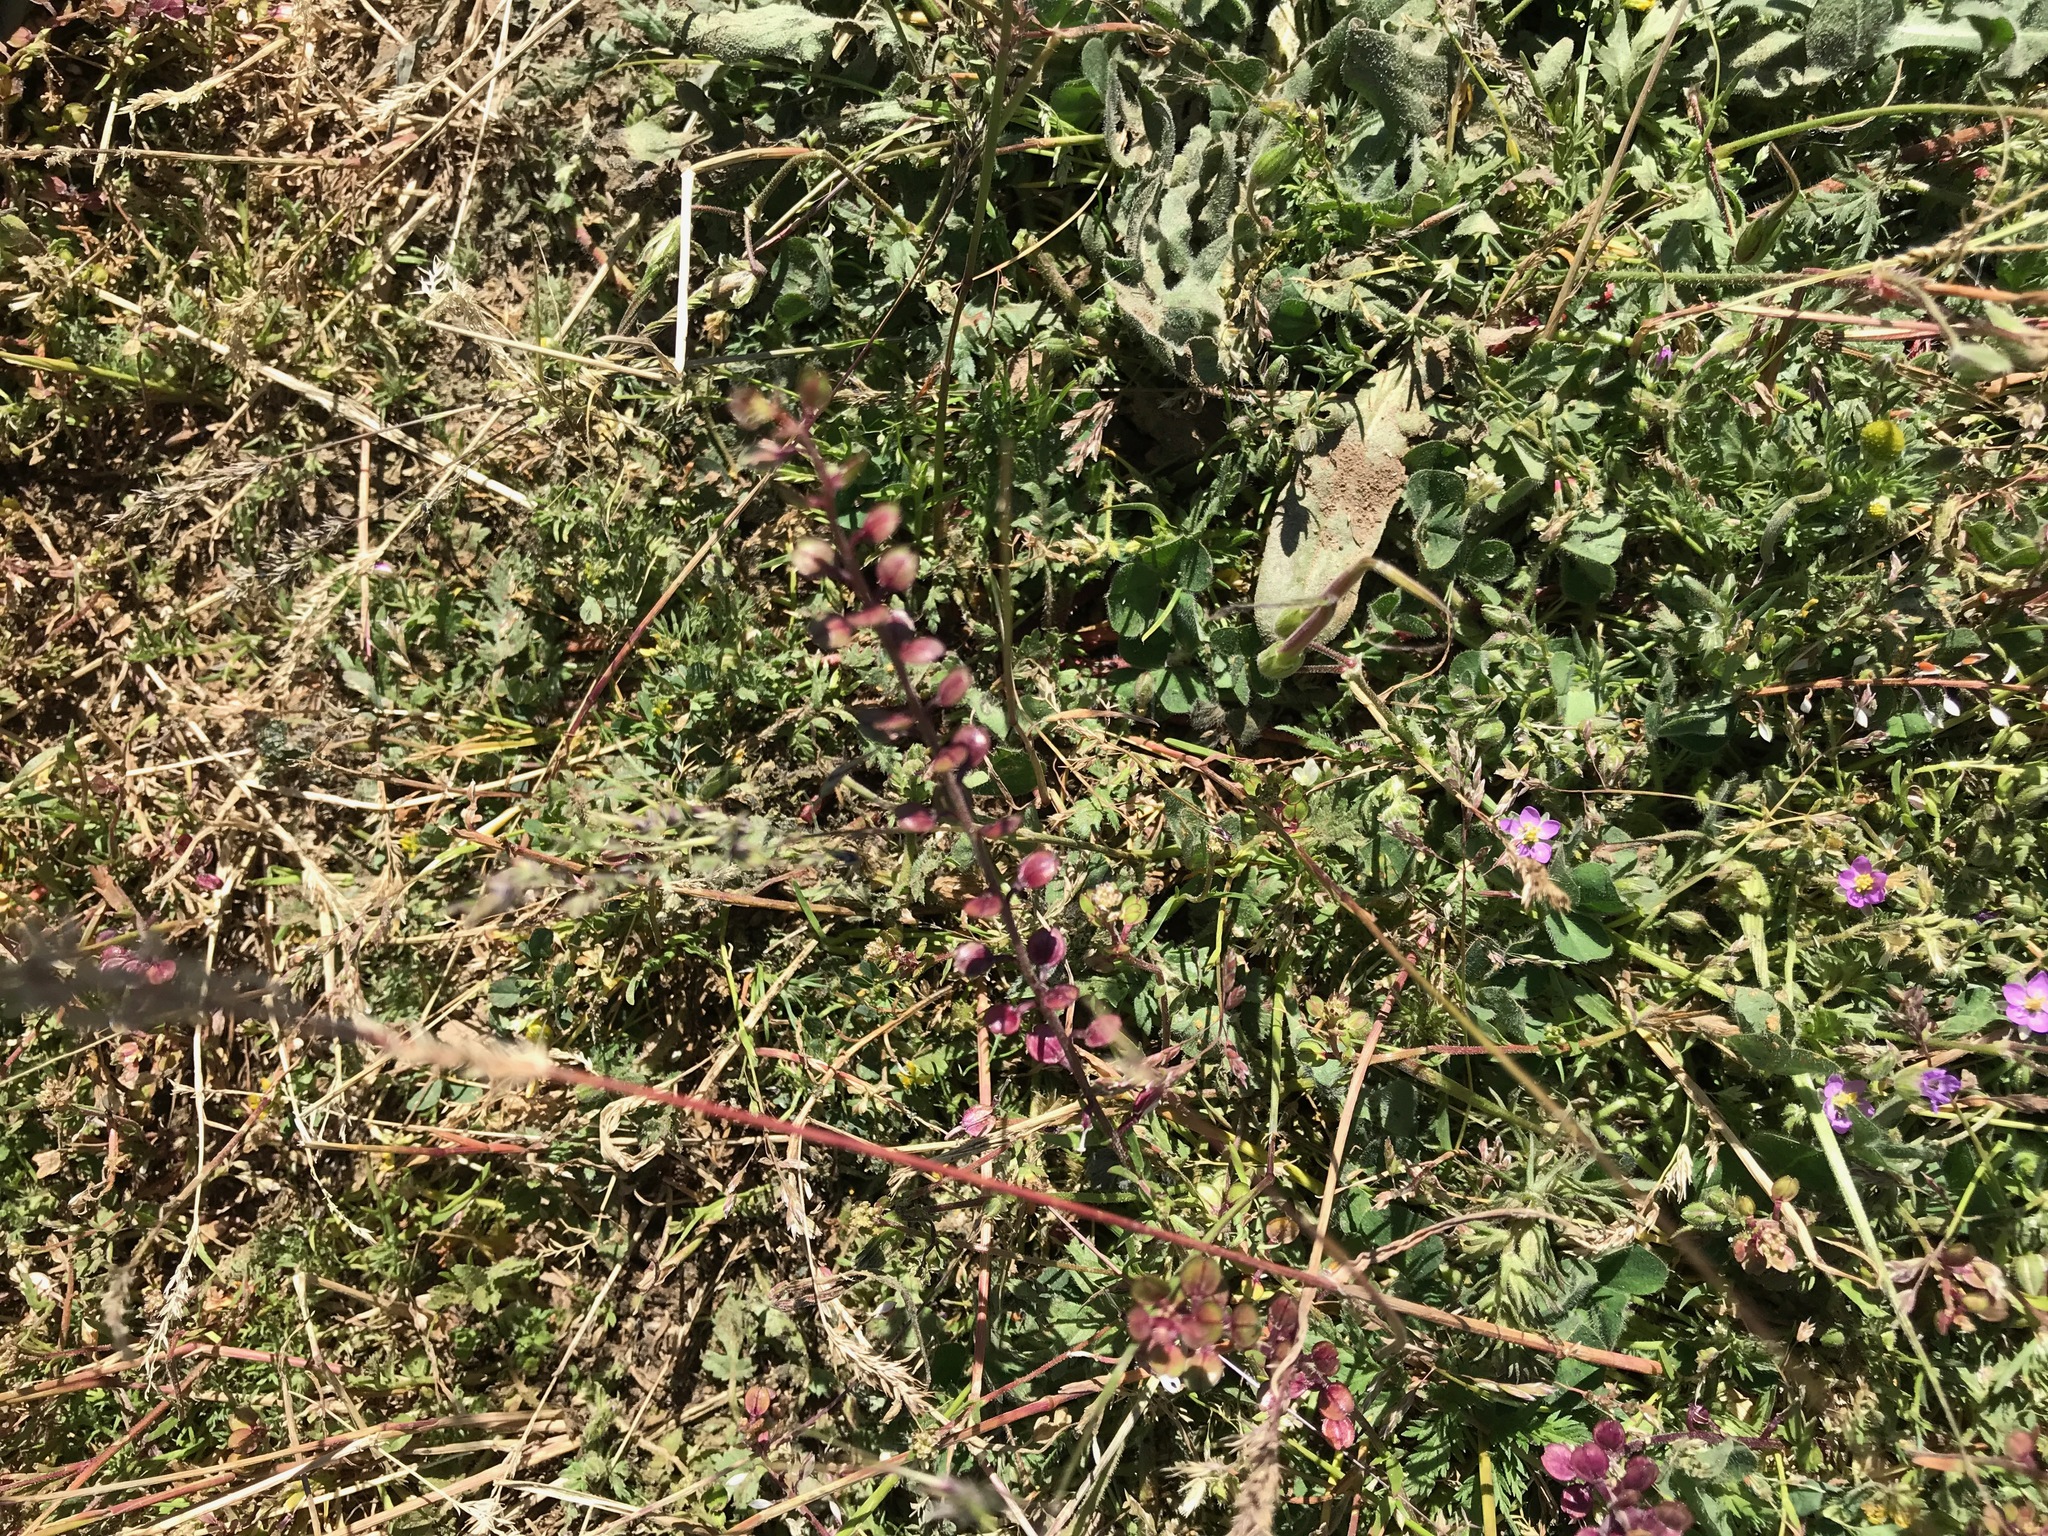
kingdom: Plantae
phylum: Tracheophyta
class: Magnoliopsida
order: Brassicales
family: Brassicaceae
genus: Lepidium
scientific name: Lepidium nitidum
